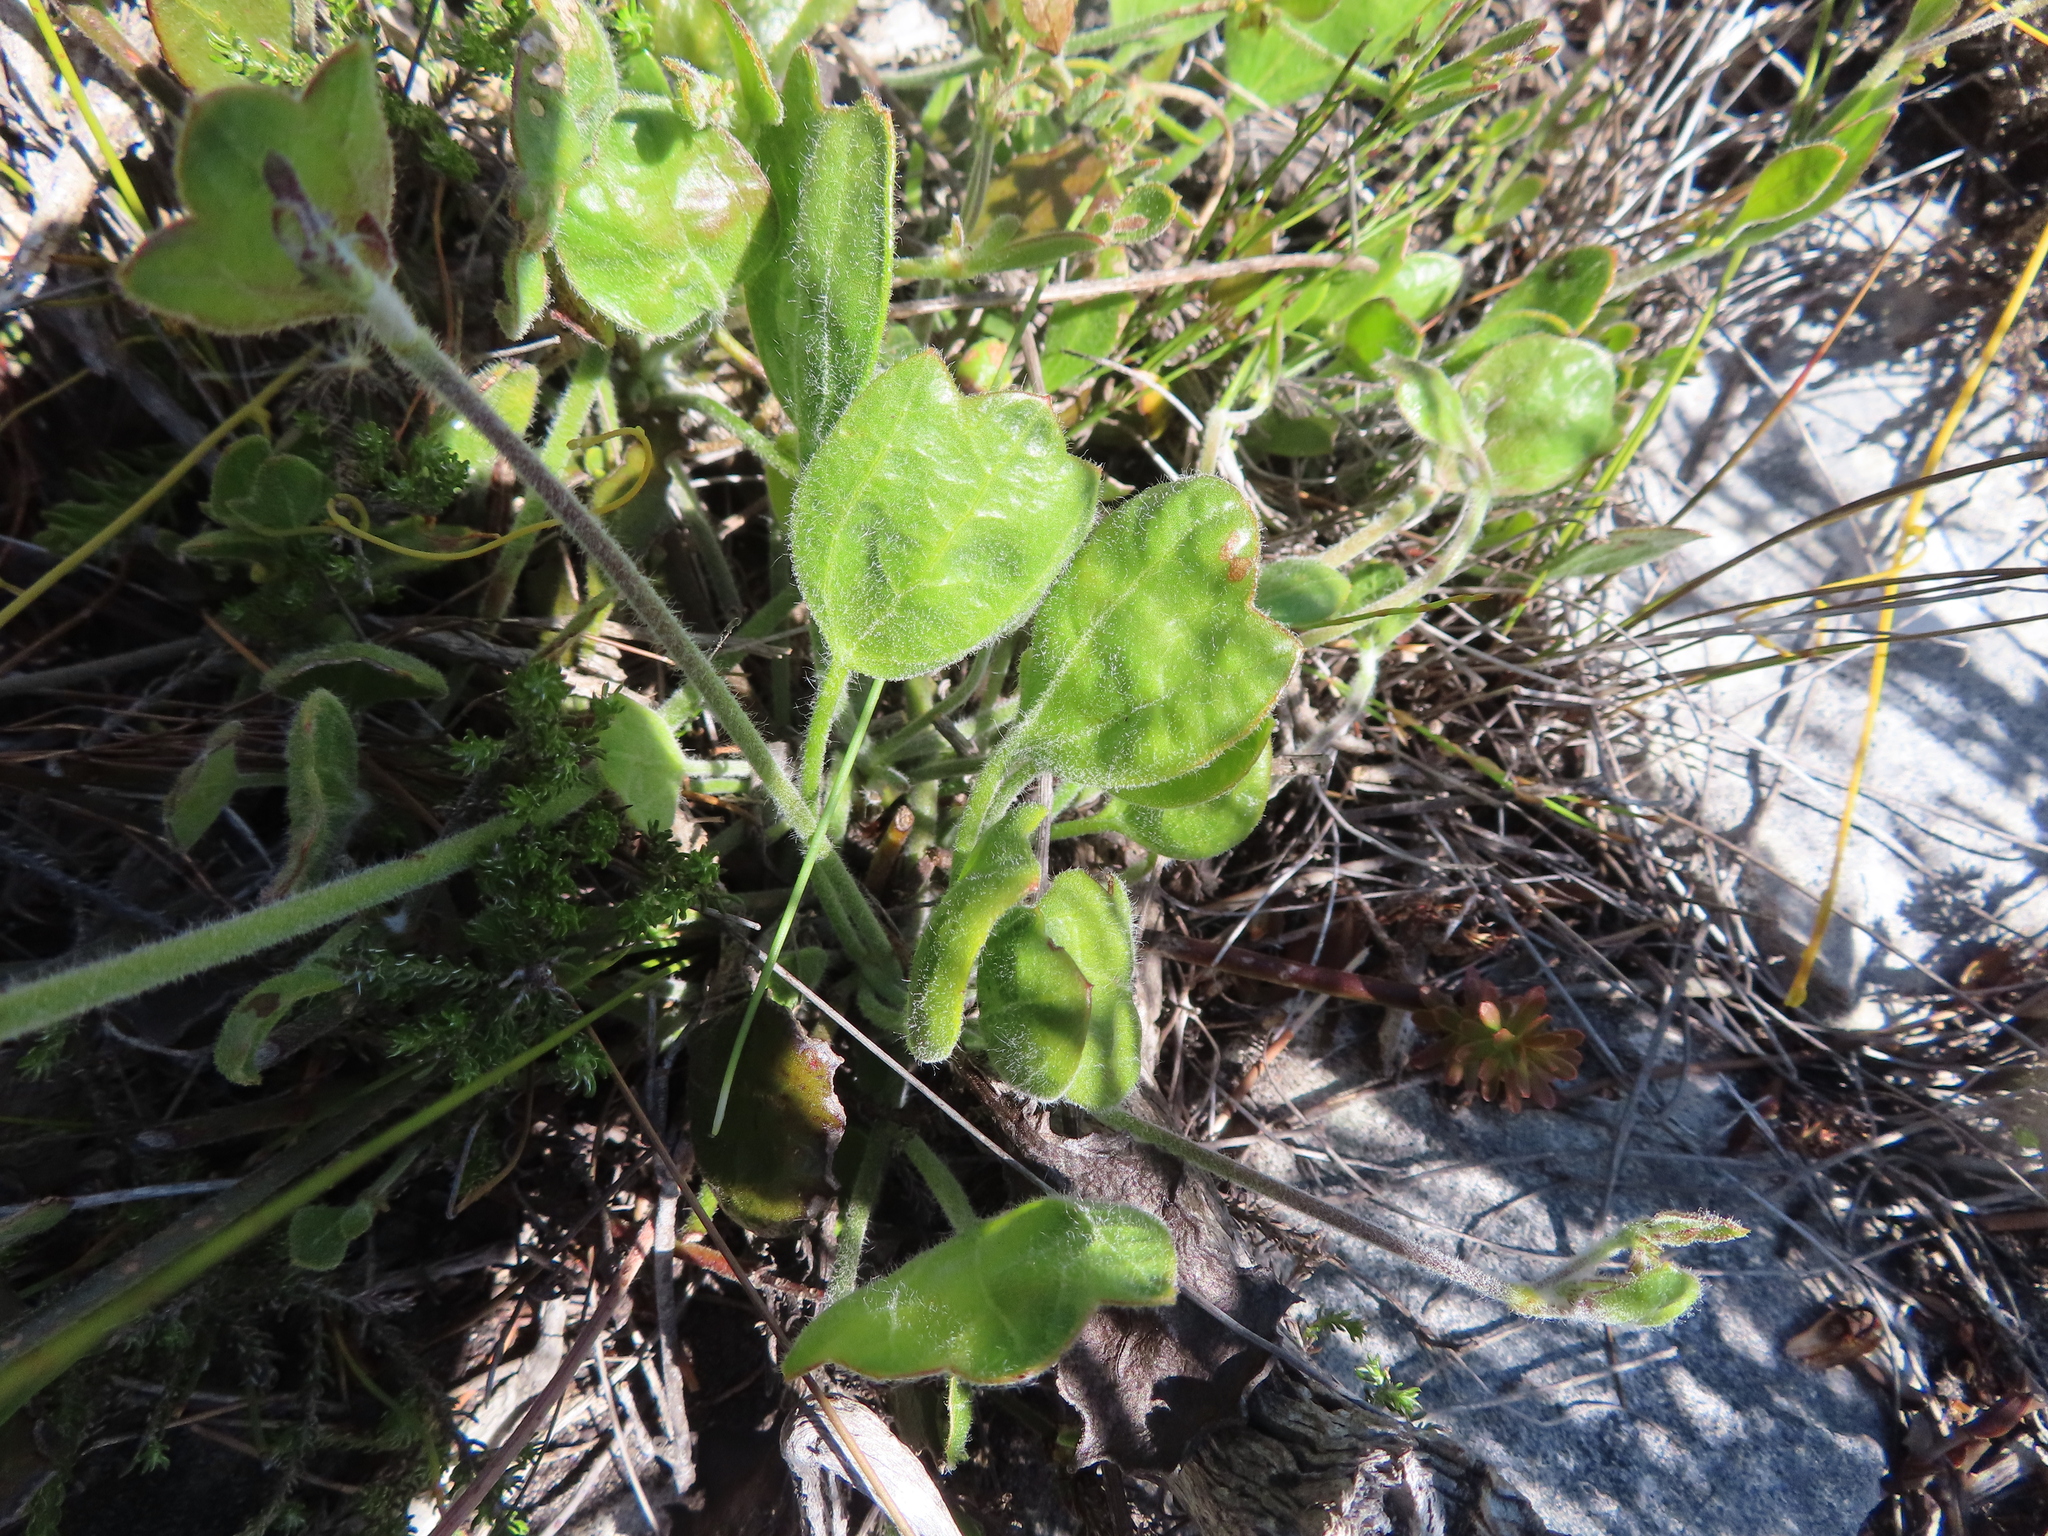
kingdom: Plantae
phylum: Tracheophyta
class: Magnoliopsida
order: Apiales
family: Apiaceae
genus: Centella
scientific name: Centella brachycarpa
